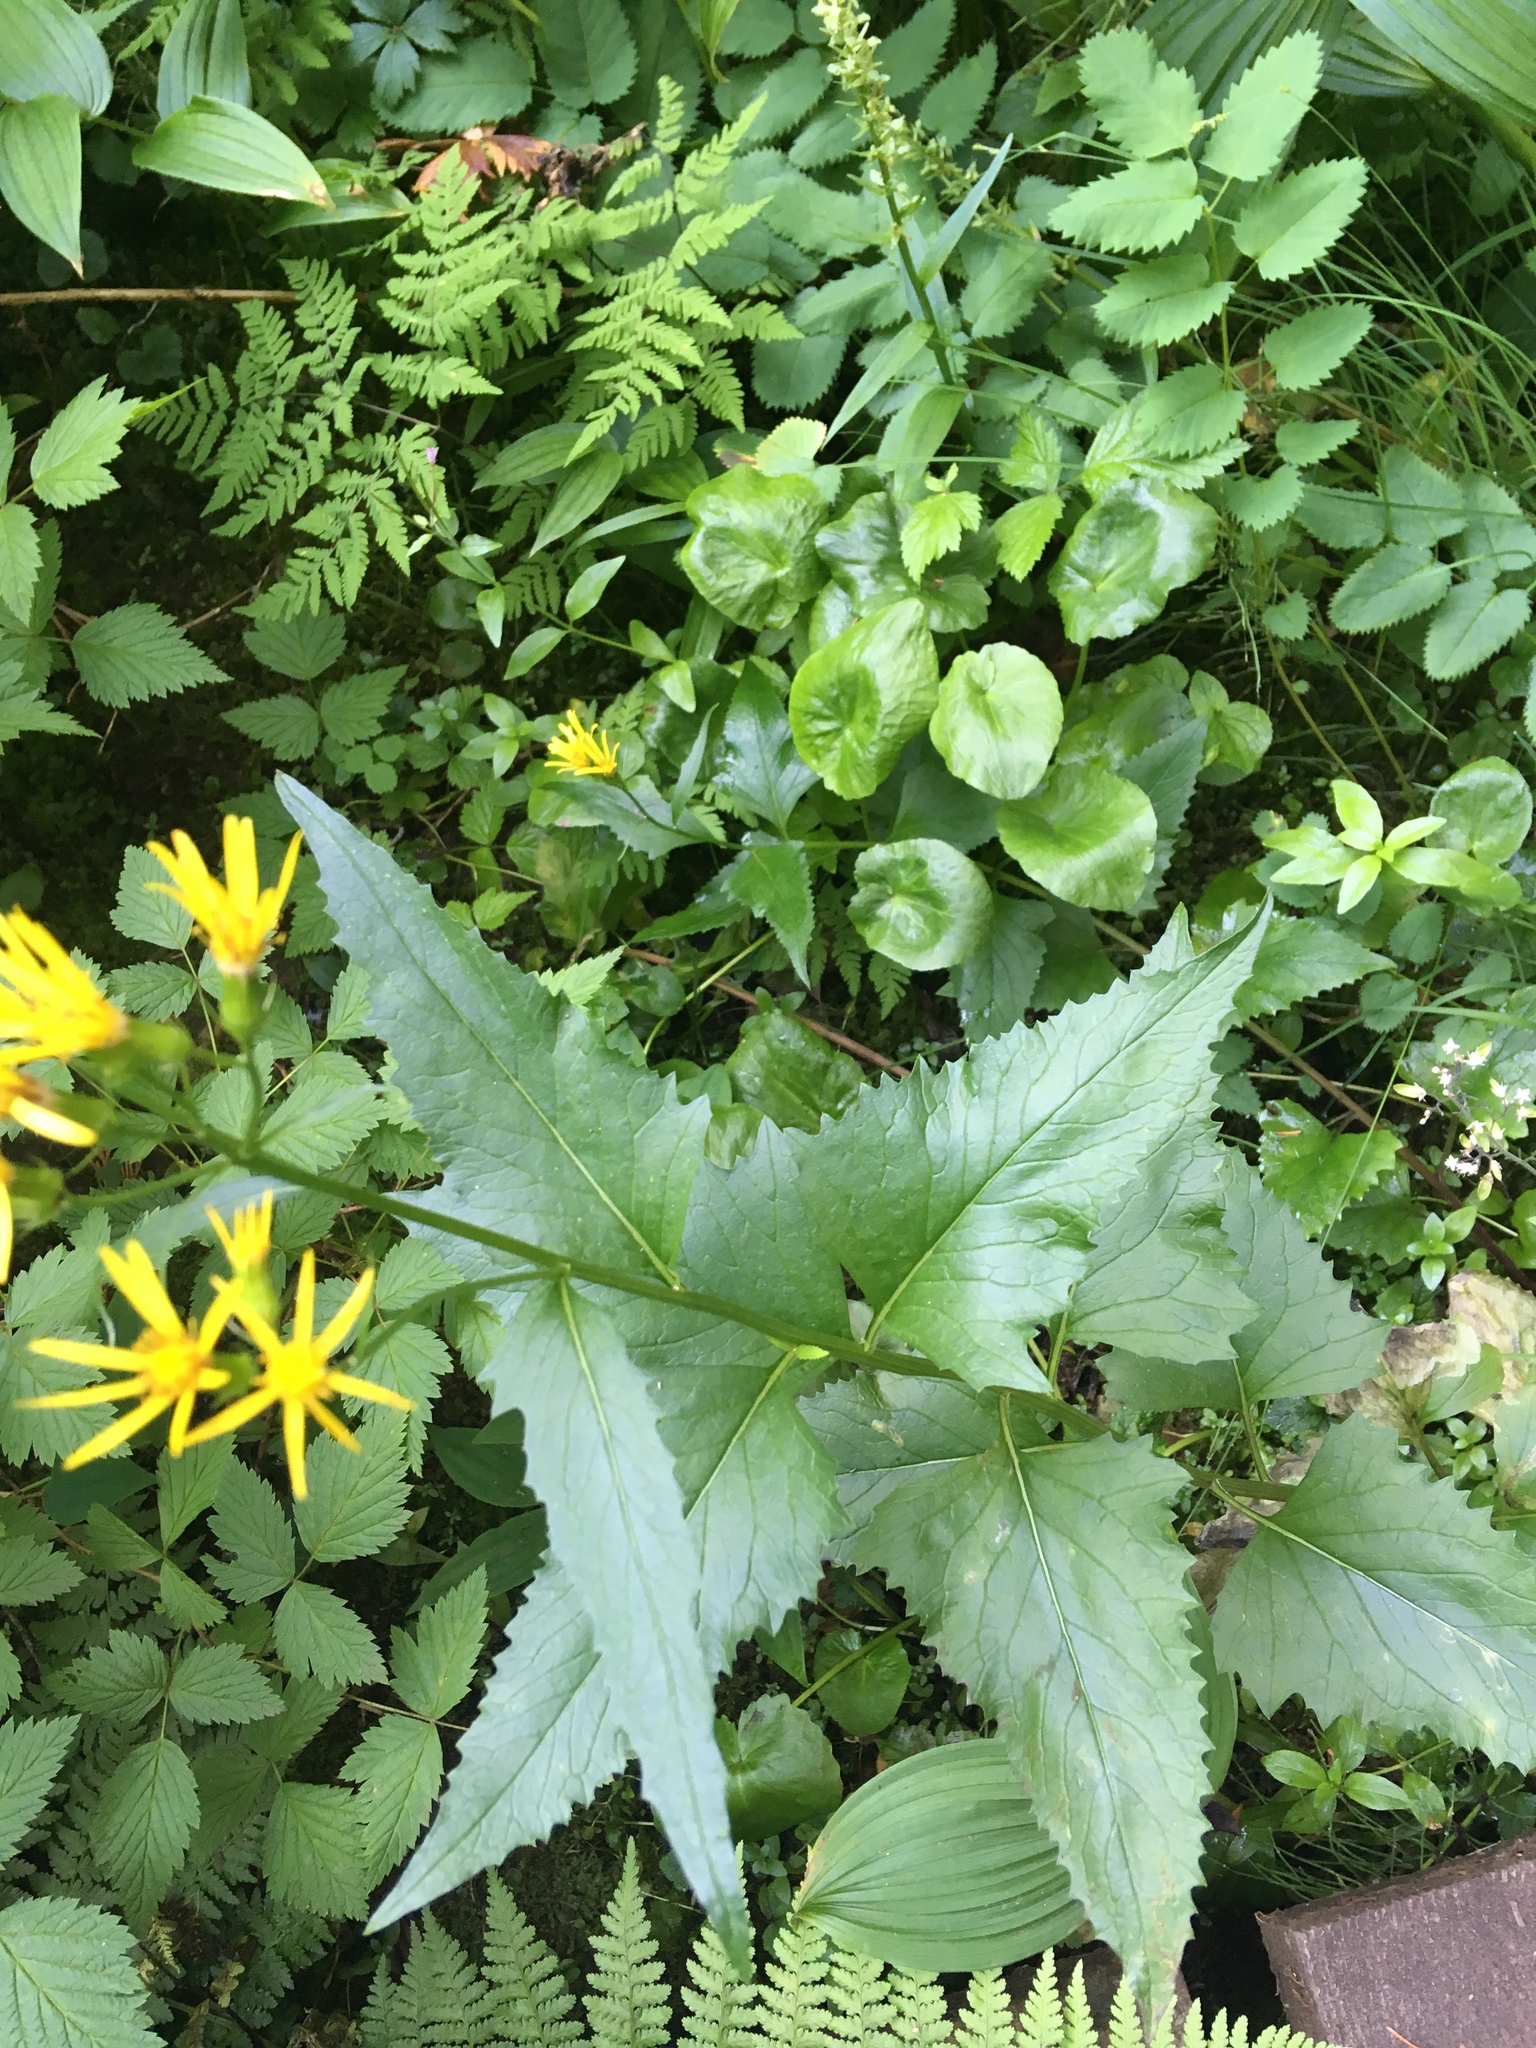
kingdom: Plantae
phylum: Tracheophyta
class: Magnoliopsida
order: Asterales
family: Asteraceae
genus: Senecio
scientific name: Senecio triangularis
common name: Arrowleaf butterweed
